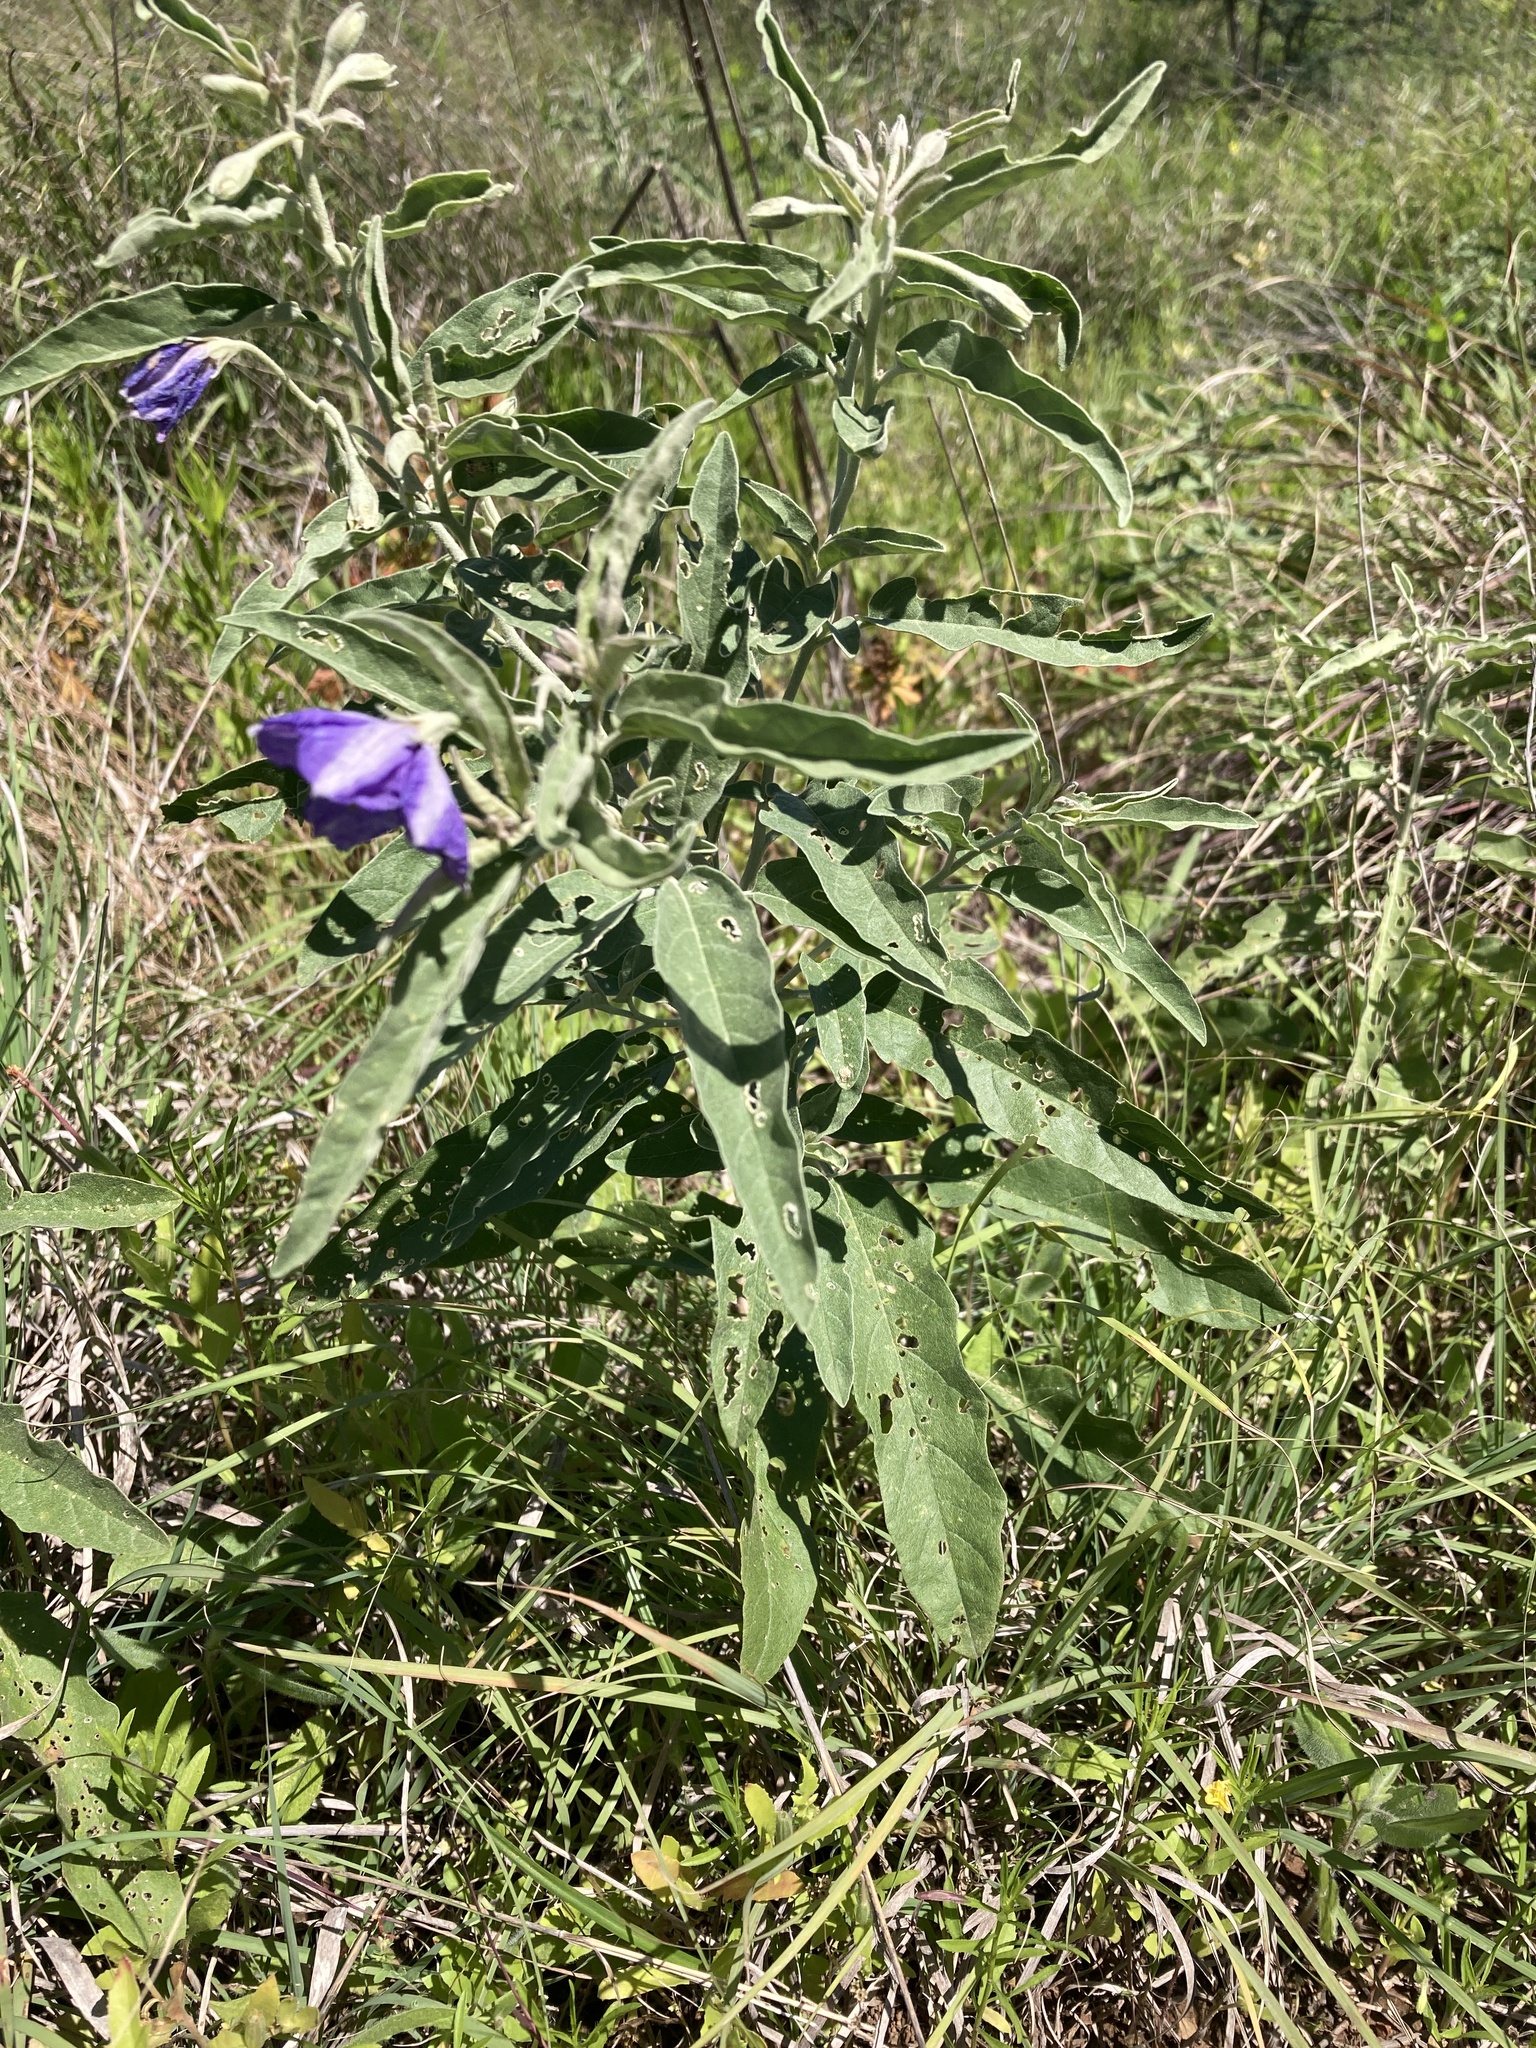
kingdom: Plantae
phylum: Tracheophyta
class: Magnoliopsida
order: Solanales
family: Solanaceae
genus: Solanum
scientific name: Solanum elaeagnifolium
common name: Silverleaf nightshade
